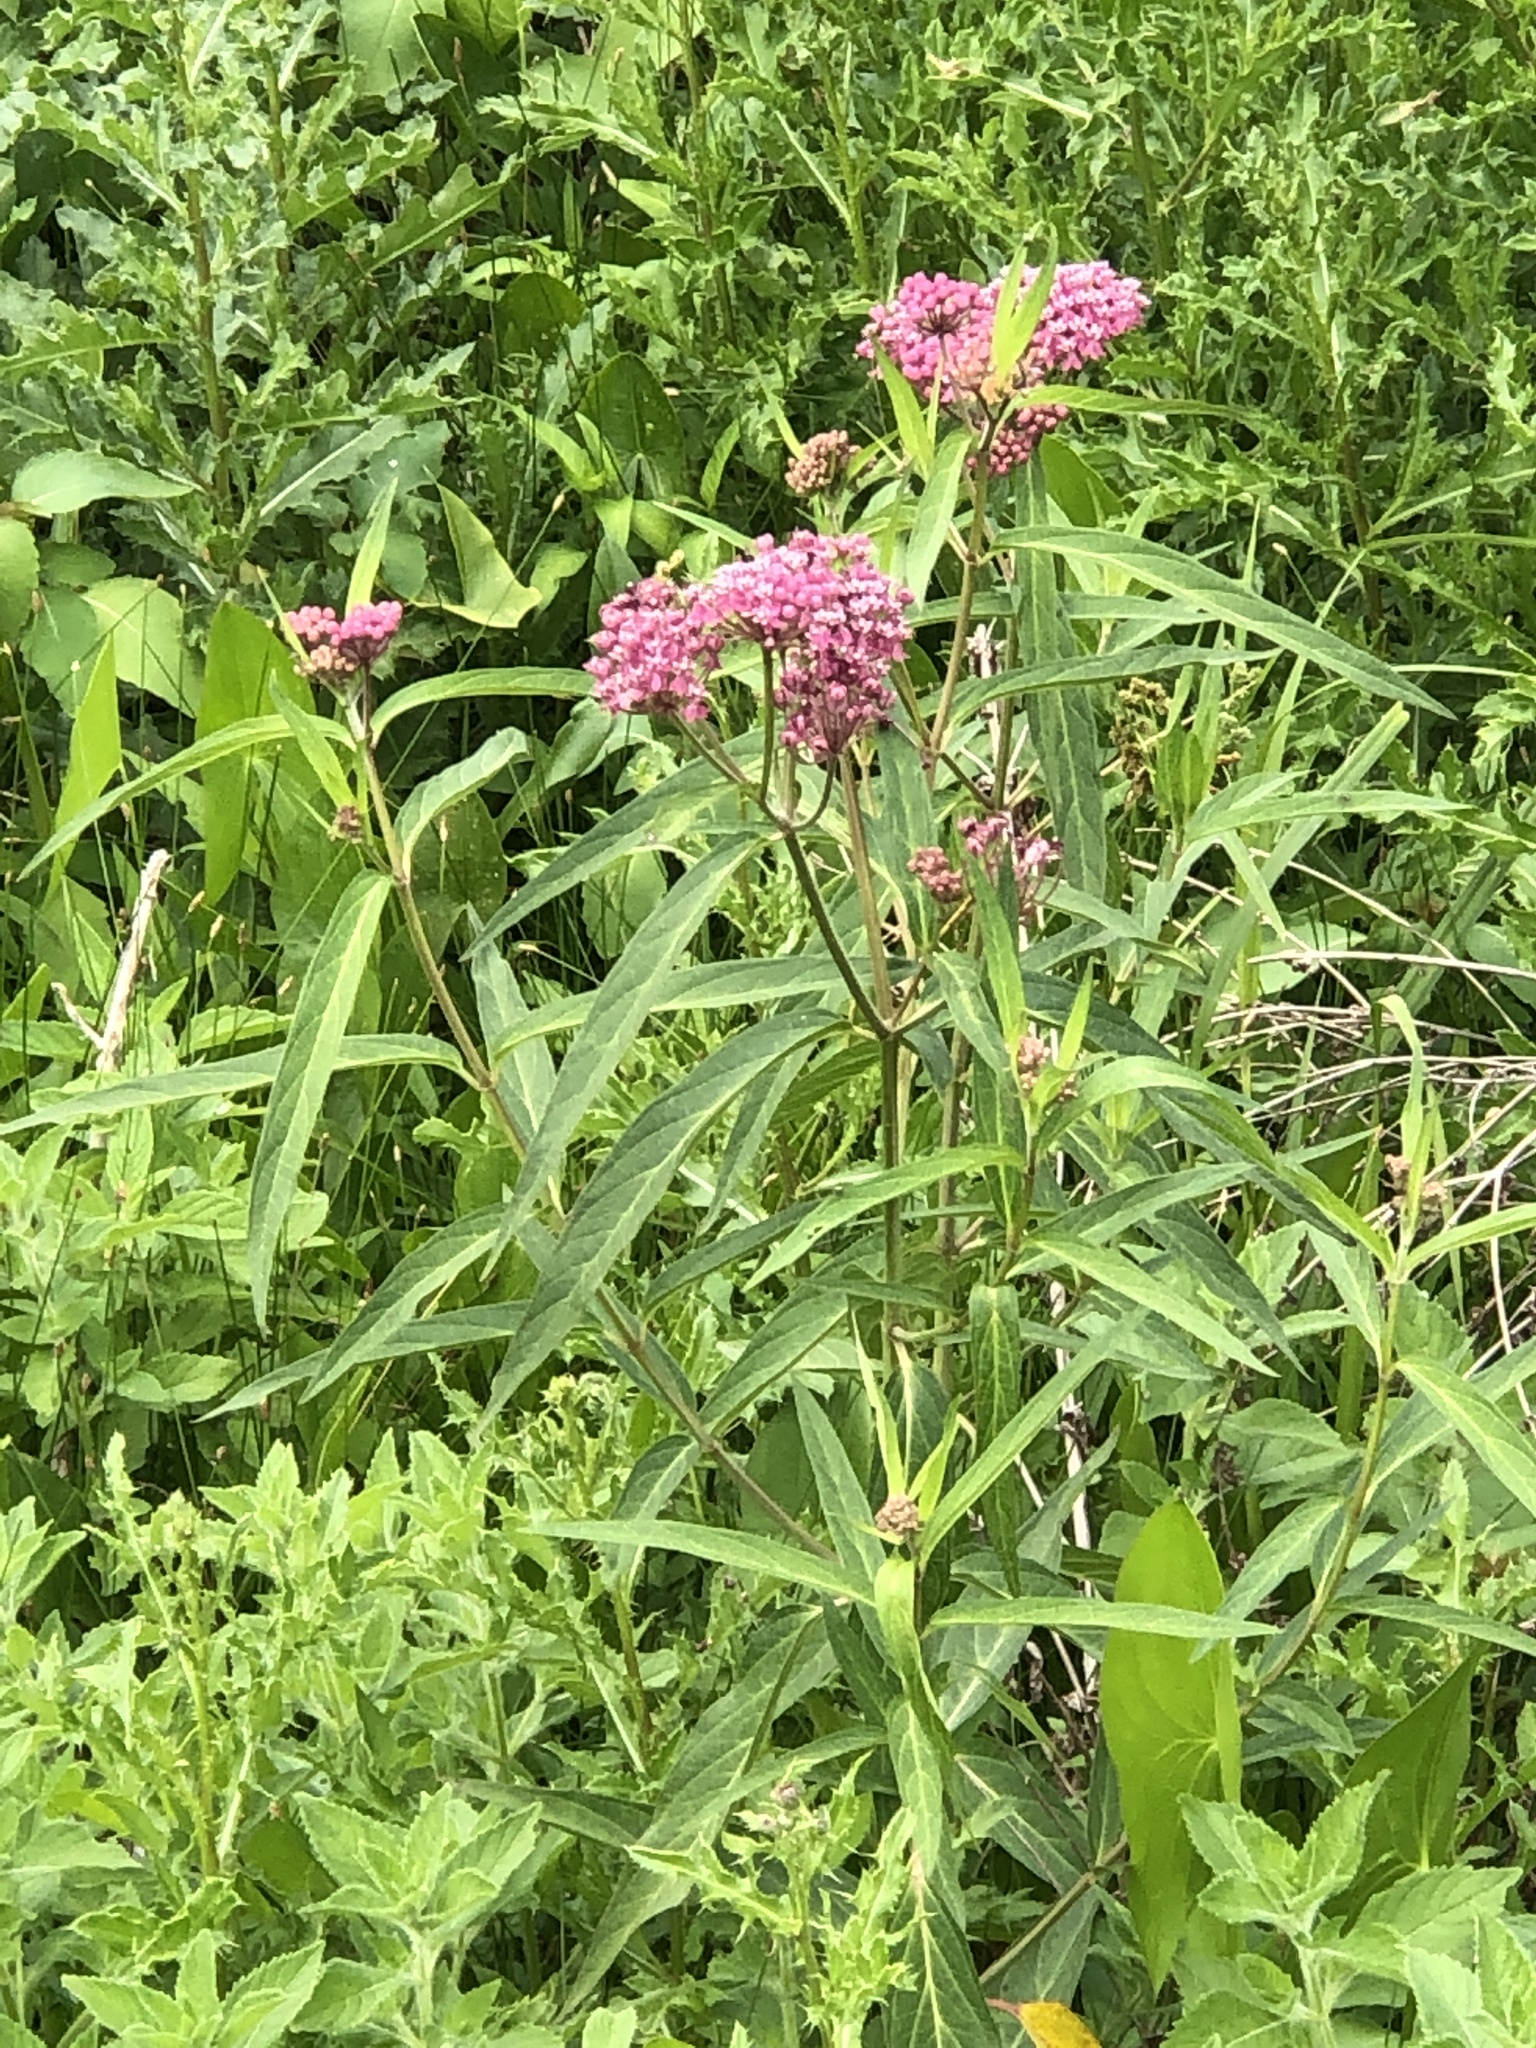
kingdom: Plantae
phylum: Tracheophyta
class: Magnoliopsida
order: Gentianales
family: Apocynaceae
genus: Asclepias
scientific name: Asclepias incarnata
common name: Swamp milkweed
